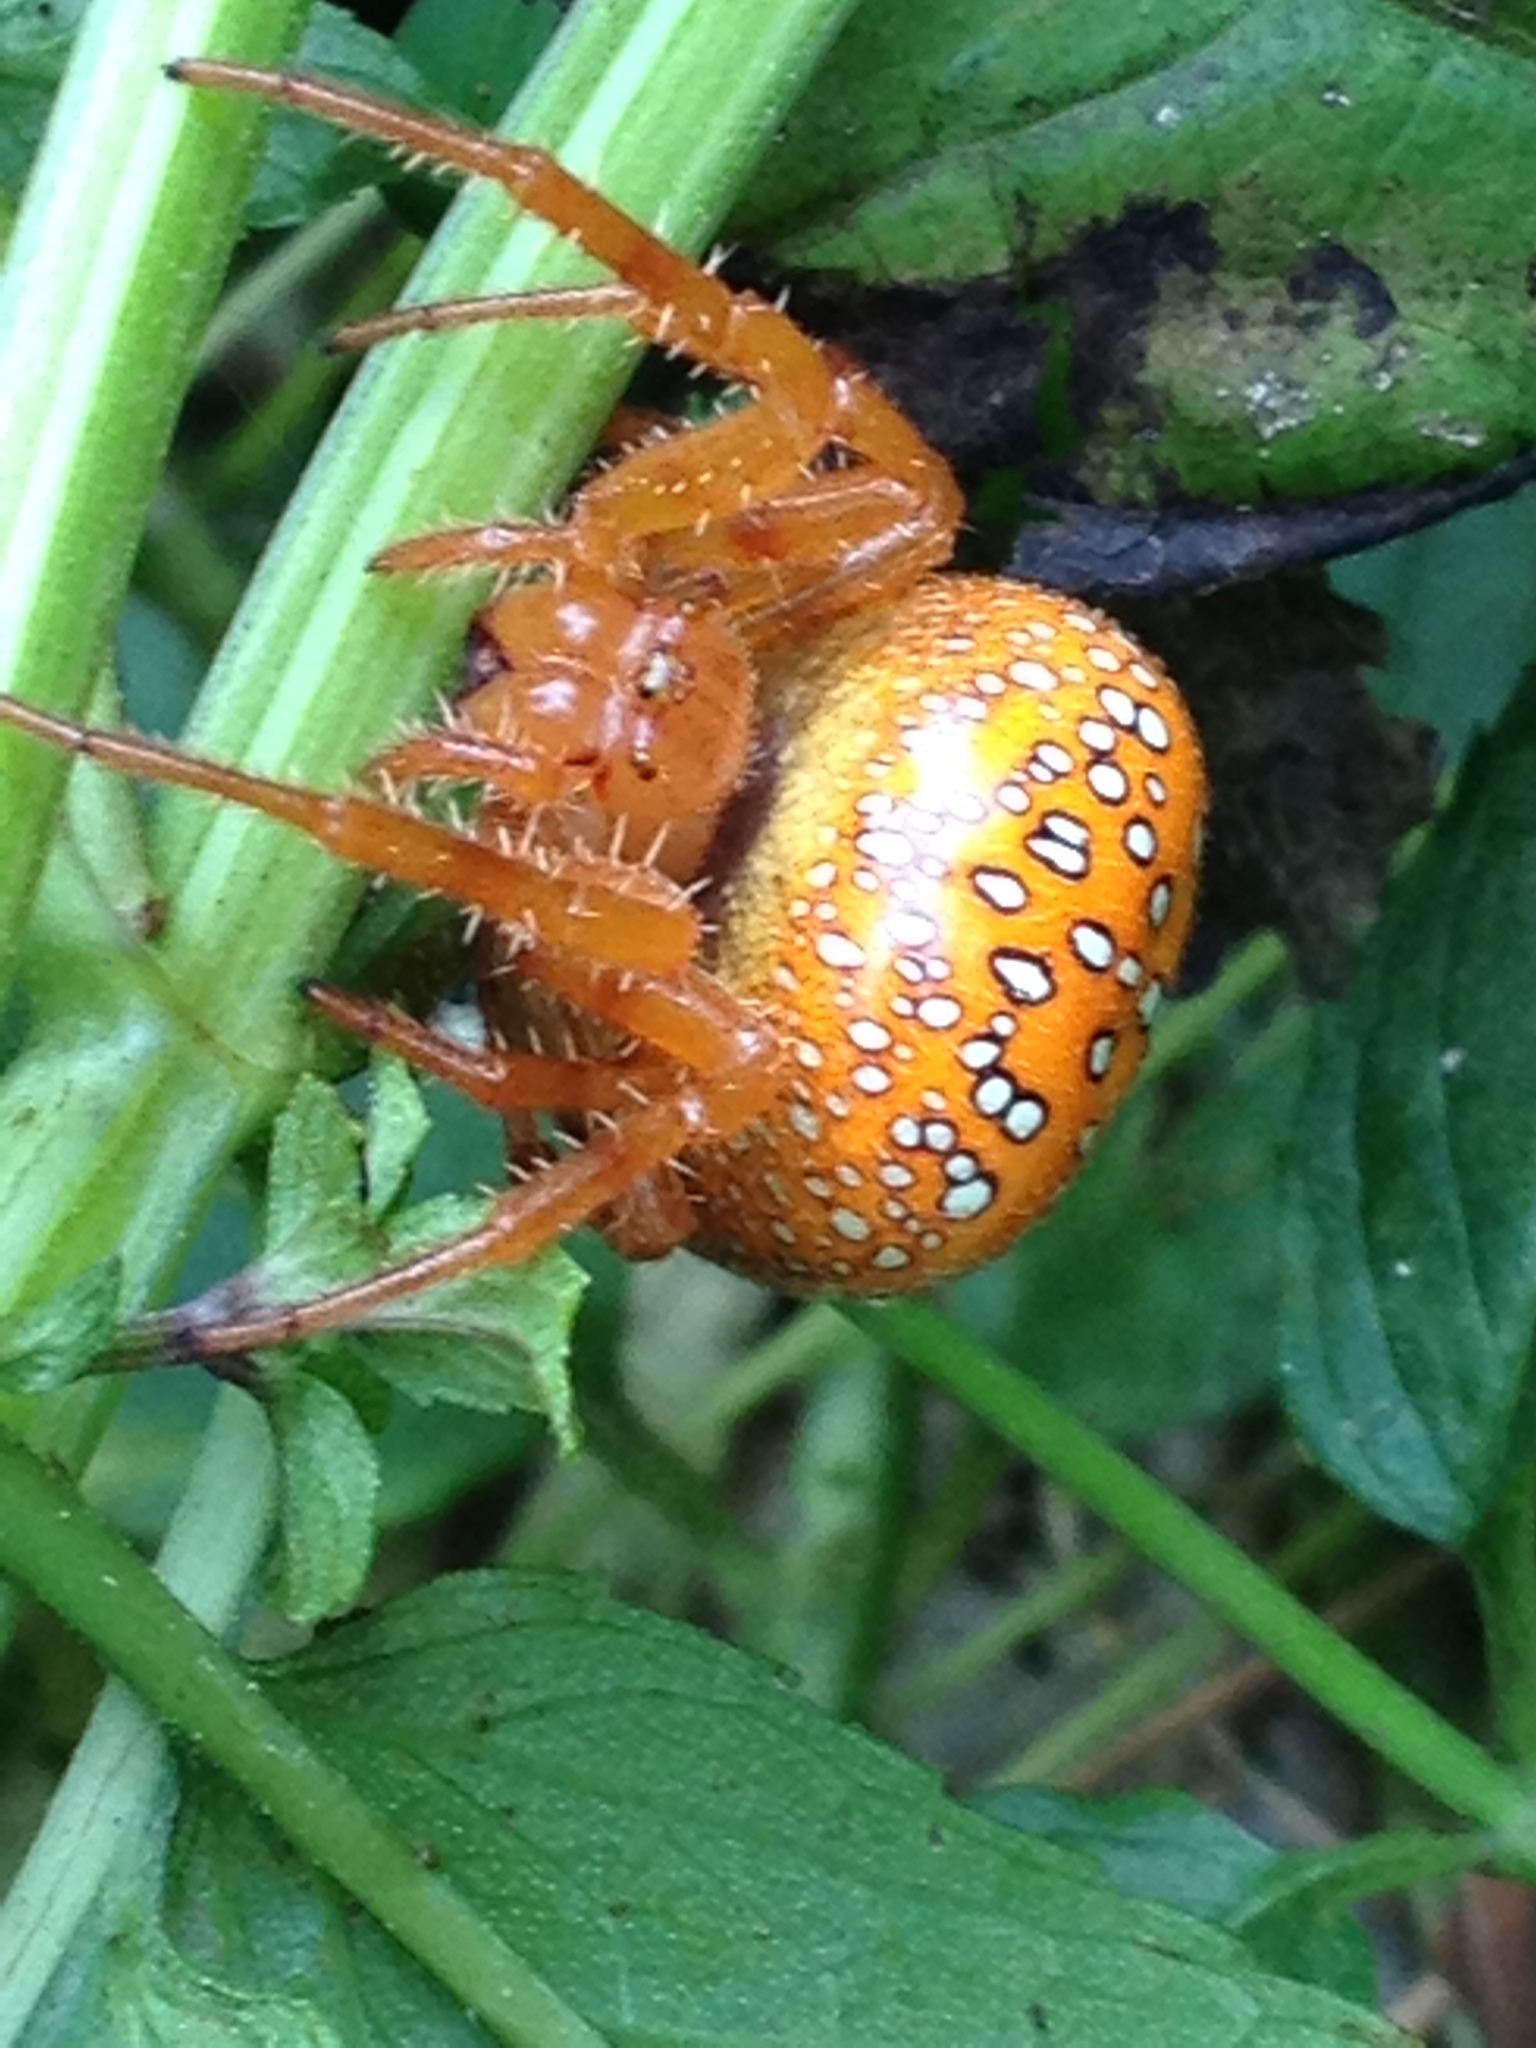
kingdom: Animalia
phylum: Arthropoda
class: Arachnida
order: Araneae
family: Araneidae
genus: Araneus
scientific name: Araneus iviei
